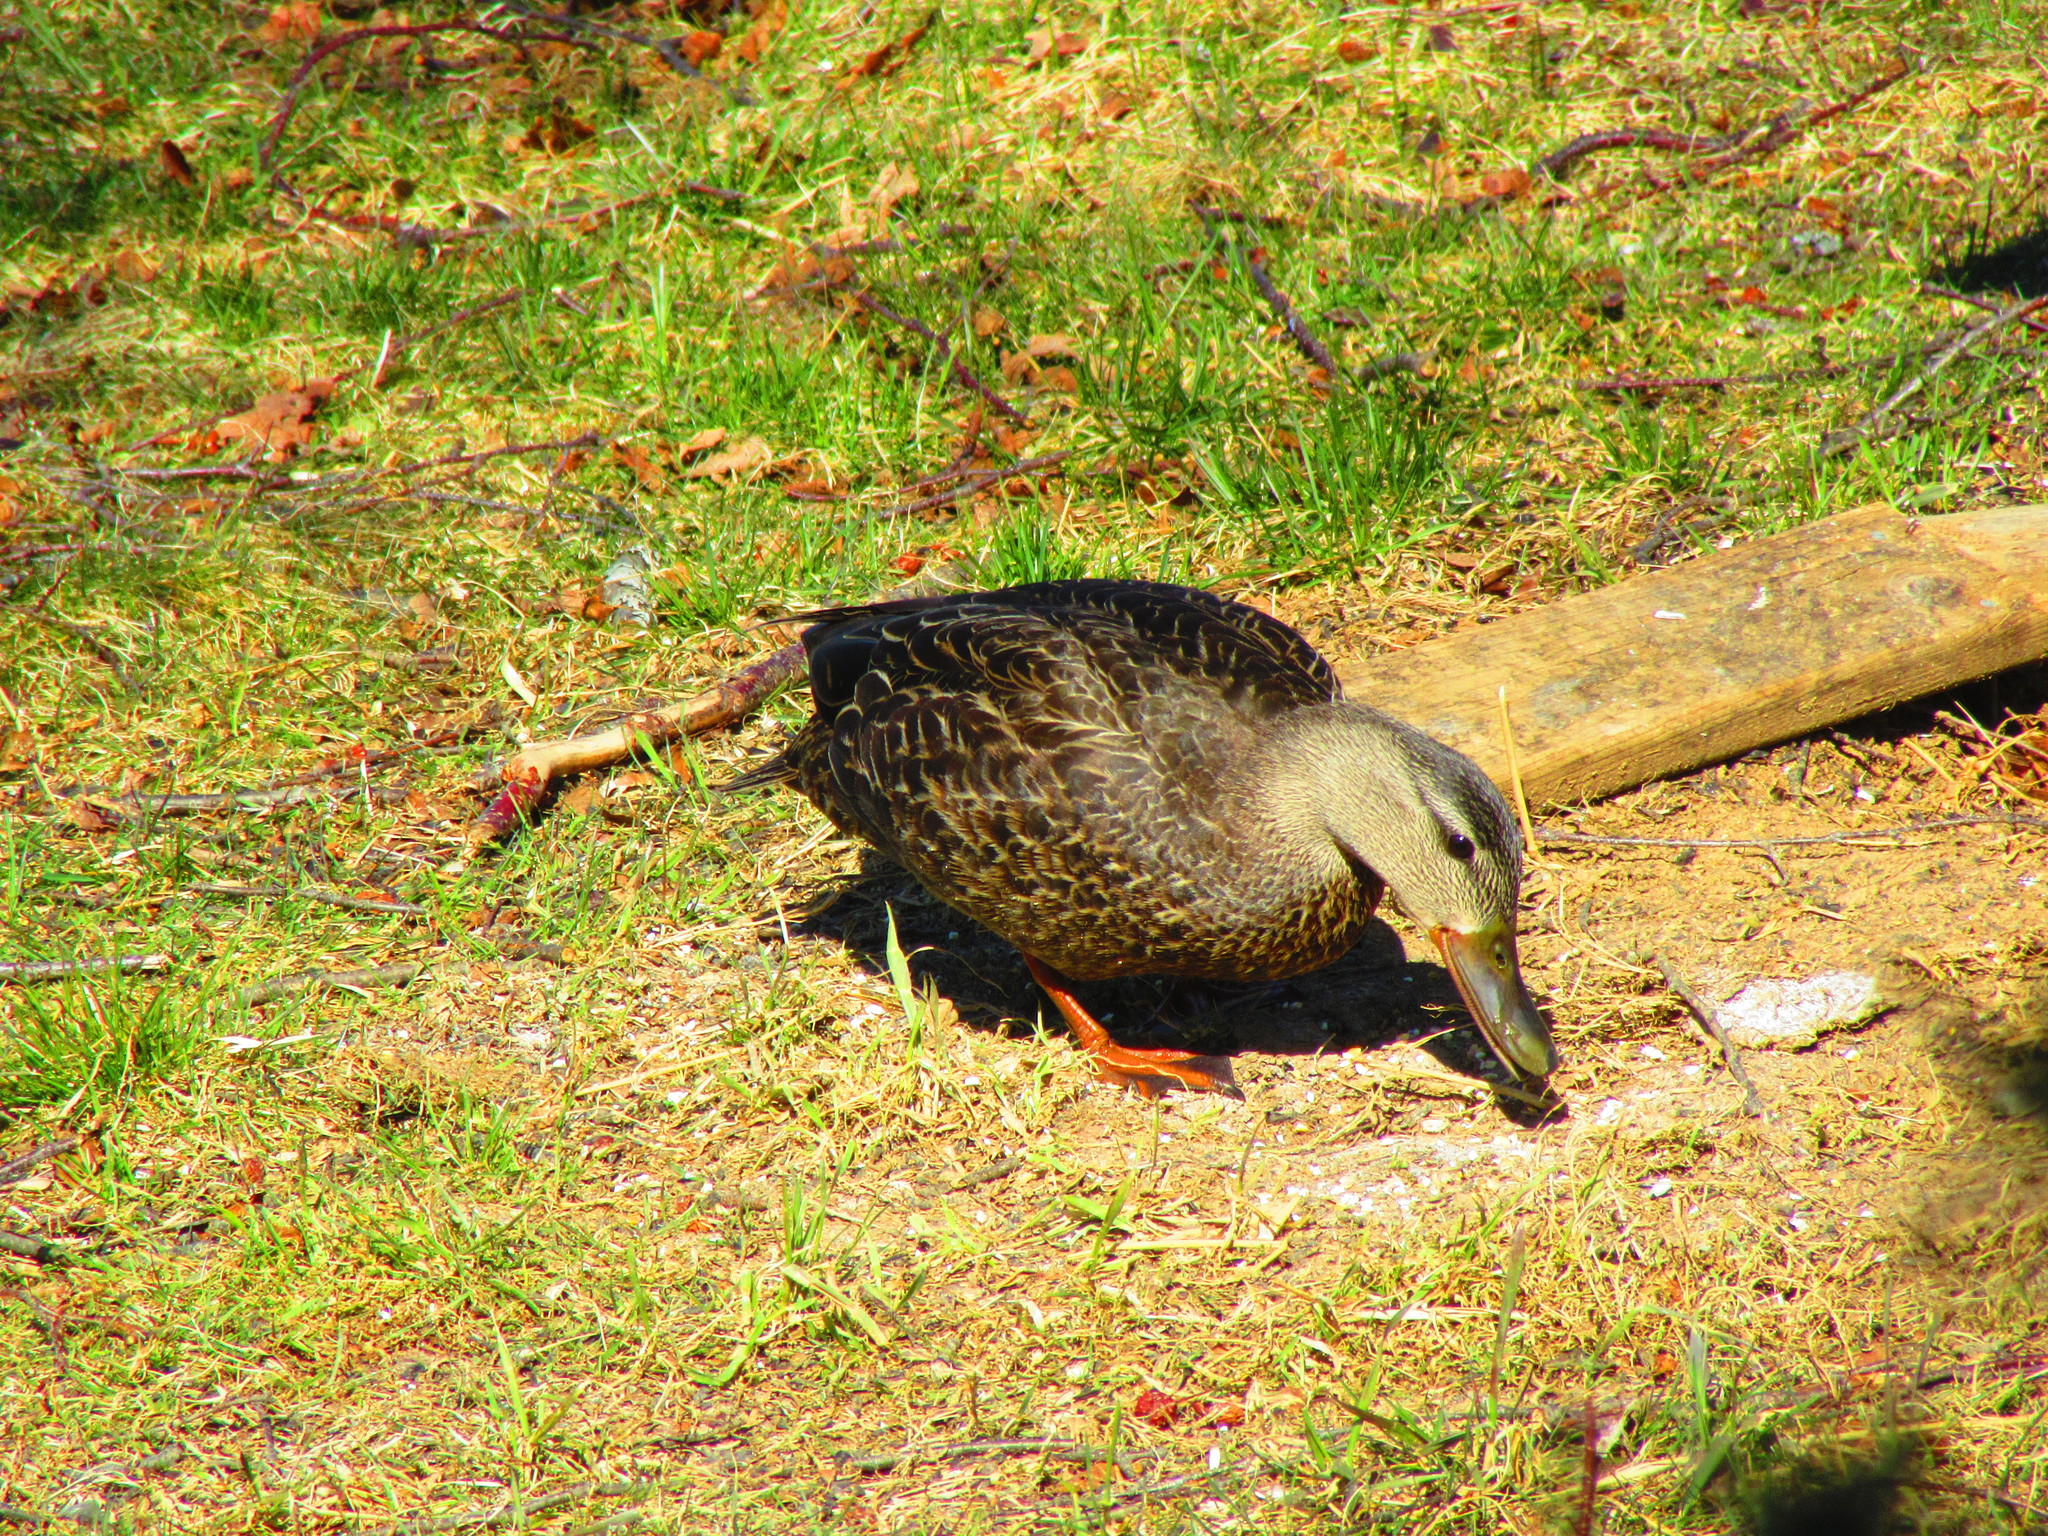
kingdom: Animalia
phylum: Chordata
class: Aves
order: Anseriformes
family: Anatidae
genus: Anas
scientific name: Anas rubripes
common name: American black duck
